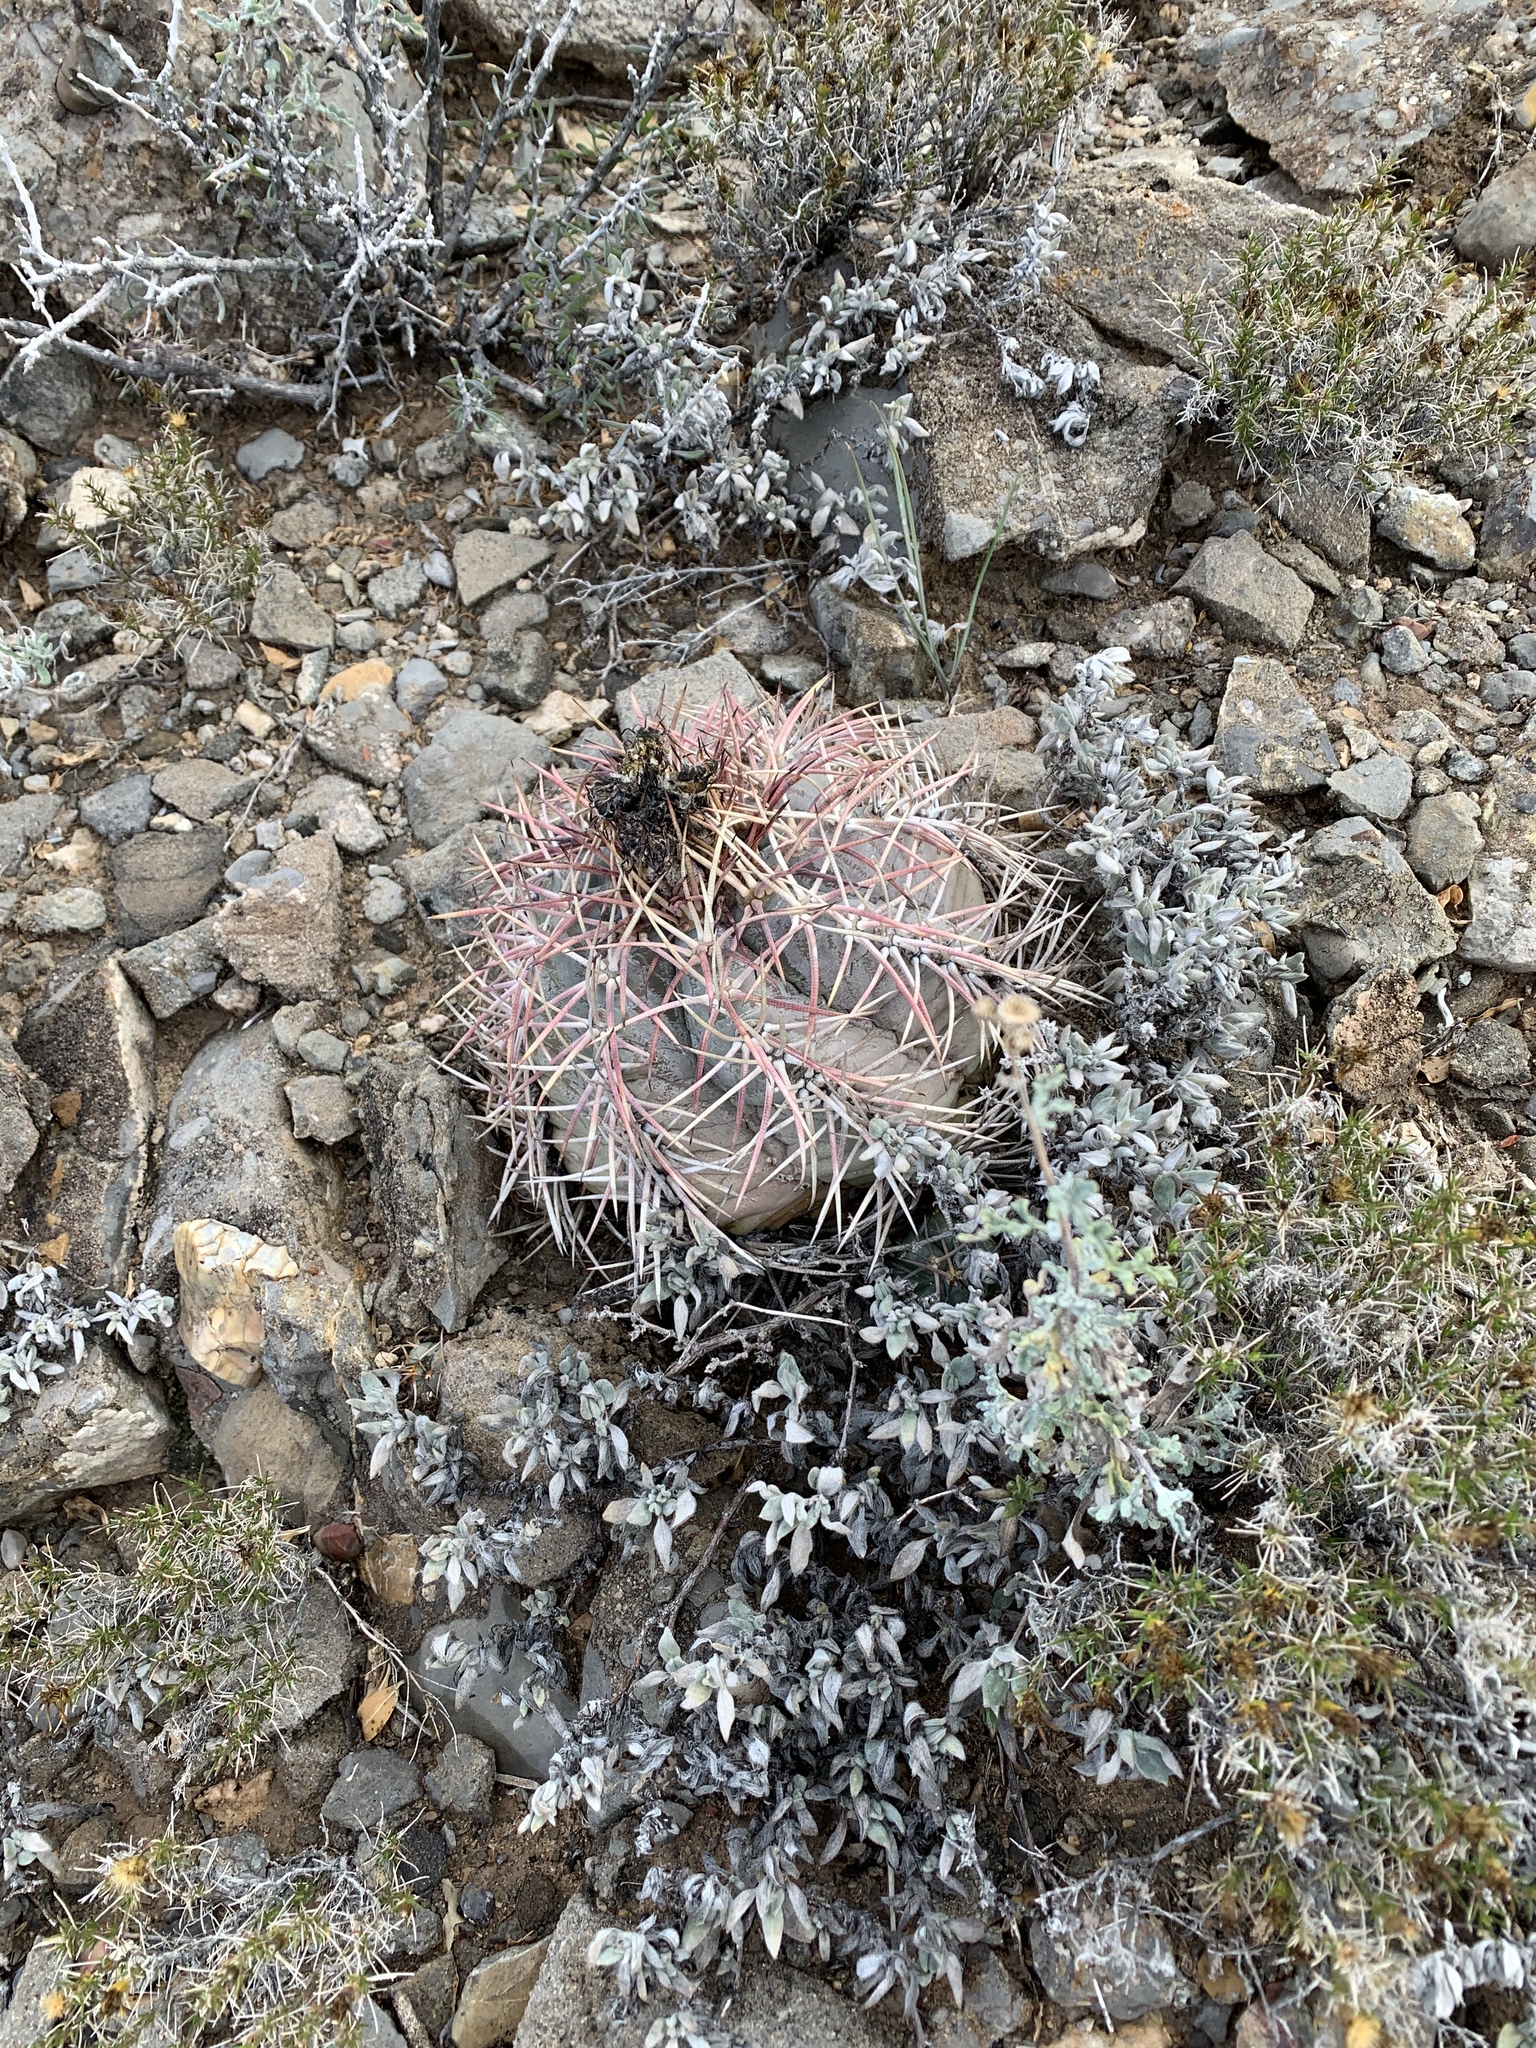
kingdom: Plantae
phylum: Tracheophyta
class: Magnoliopsida
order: Caryophyllales
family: Cactaceae
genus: Echinocactus
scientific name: Echinocactus horizonthalonius
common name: Devilshead
